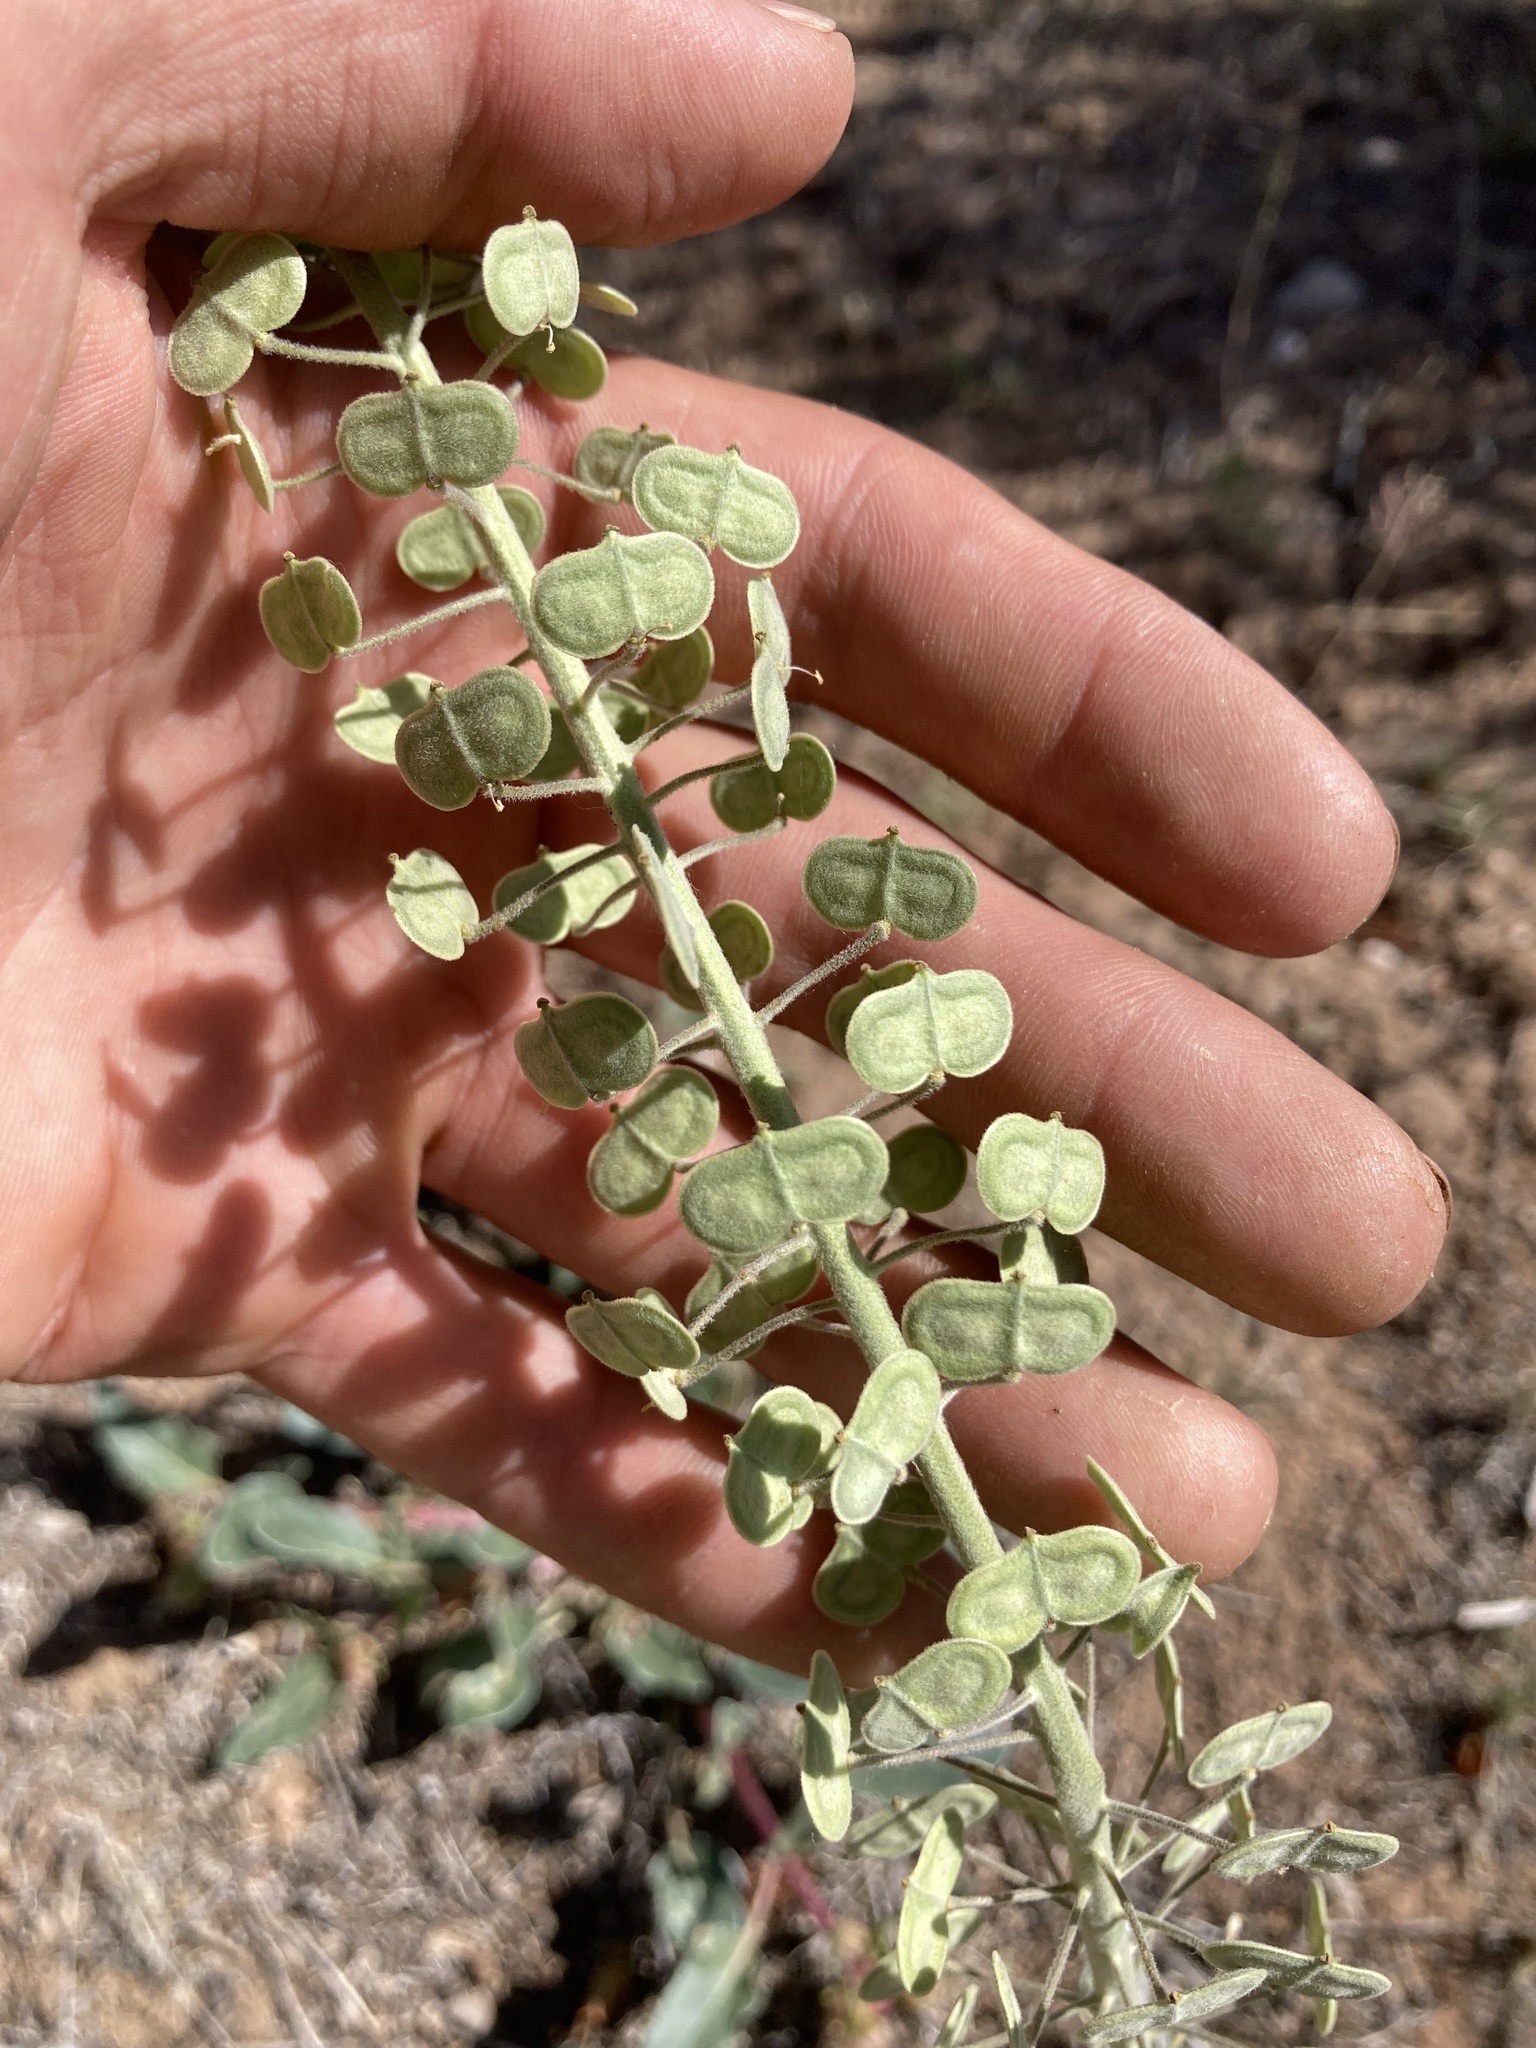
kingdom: Plantae
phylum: Tracheophyta
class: Magnoliopsida
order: Brassicales
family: Brassicaceae
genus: Dimorphocarpa
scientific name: Dimorphocarpa wislizenii
